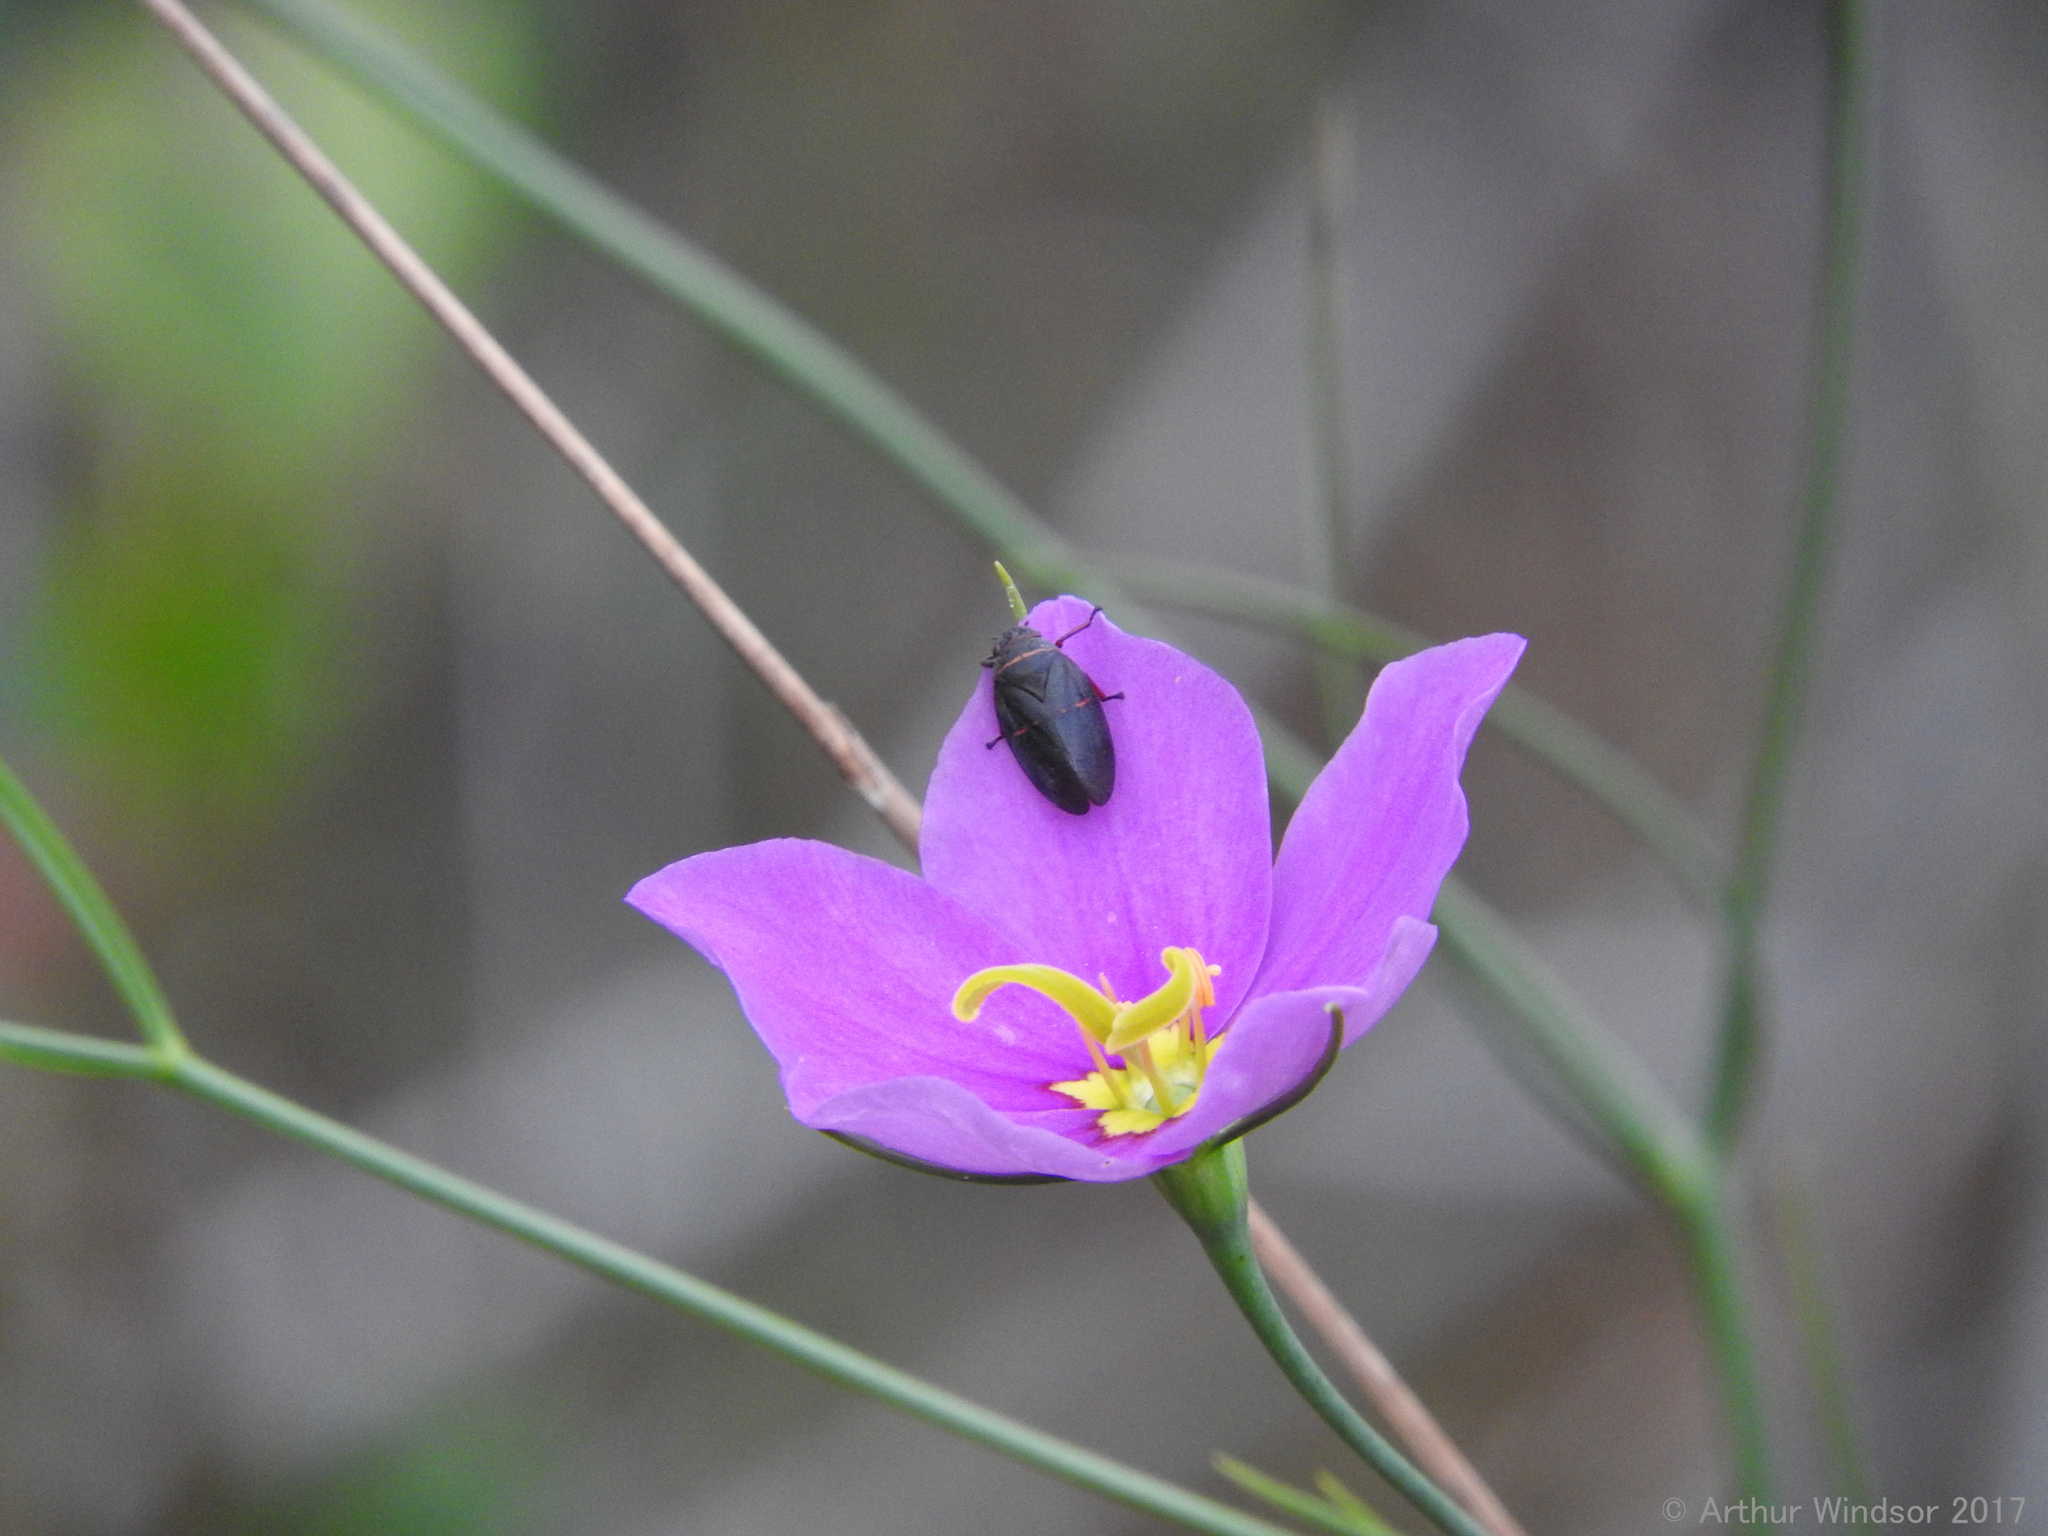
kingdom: Animalia
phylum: Arthropoda
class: Insecta
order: Hemiptera
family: Cercopidae
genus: Prosapia
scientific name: Prosapia bicincta
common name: Twolined spittlebug
